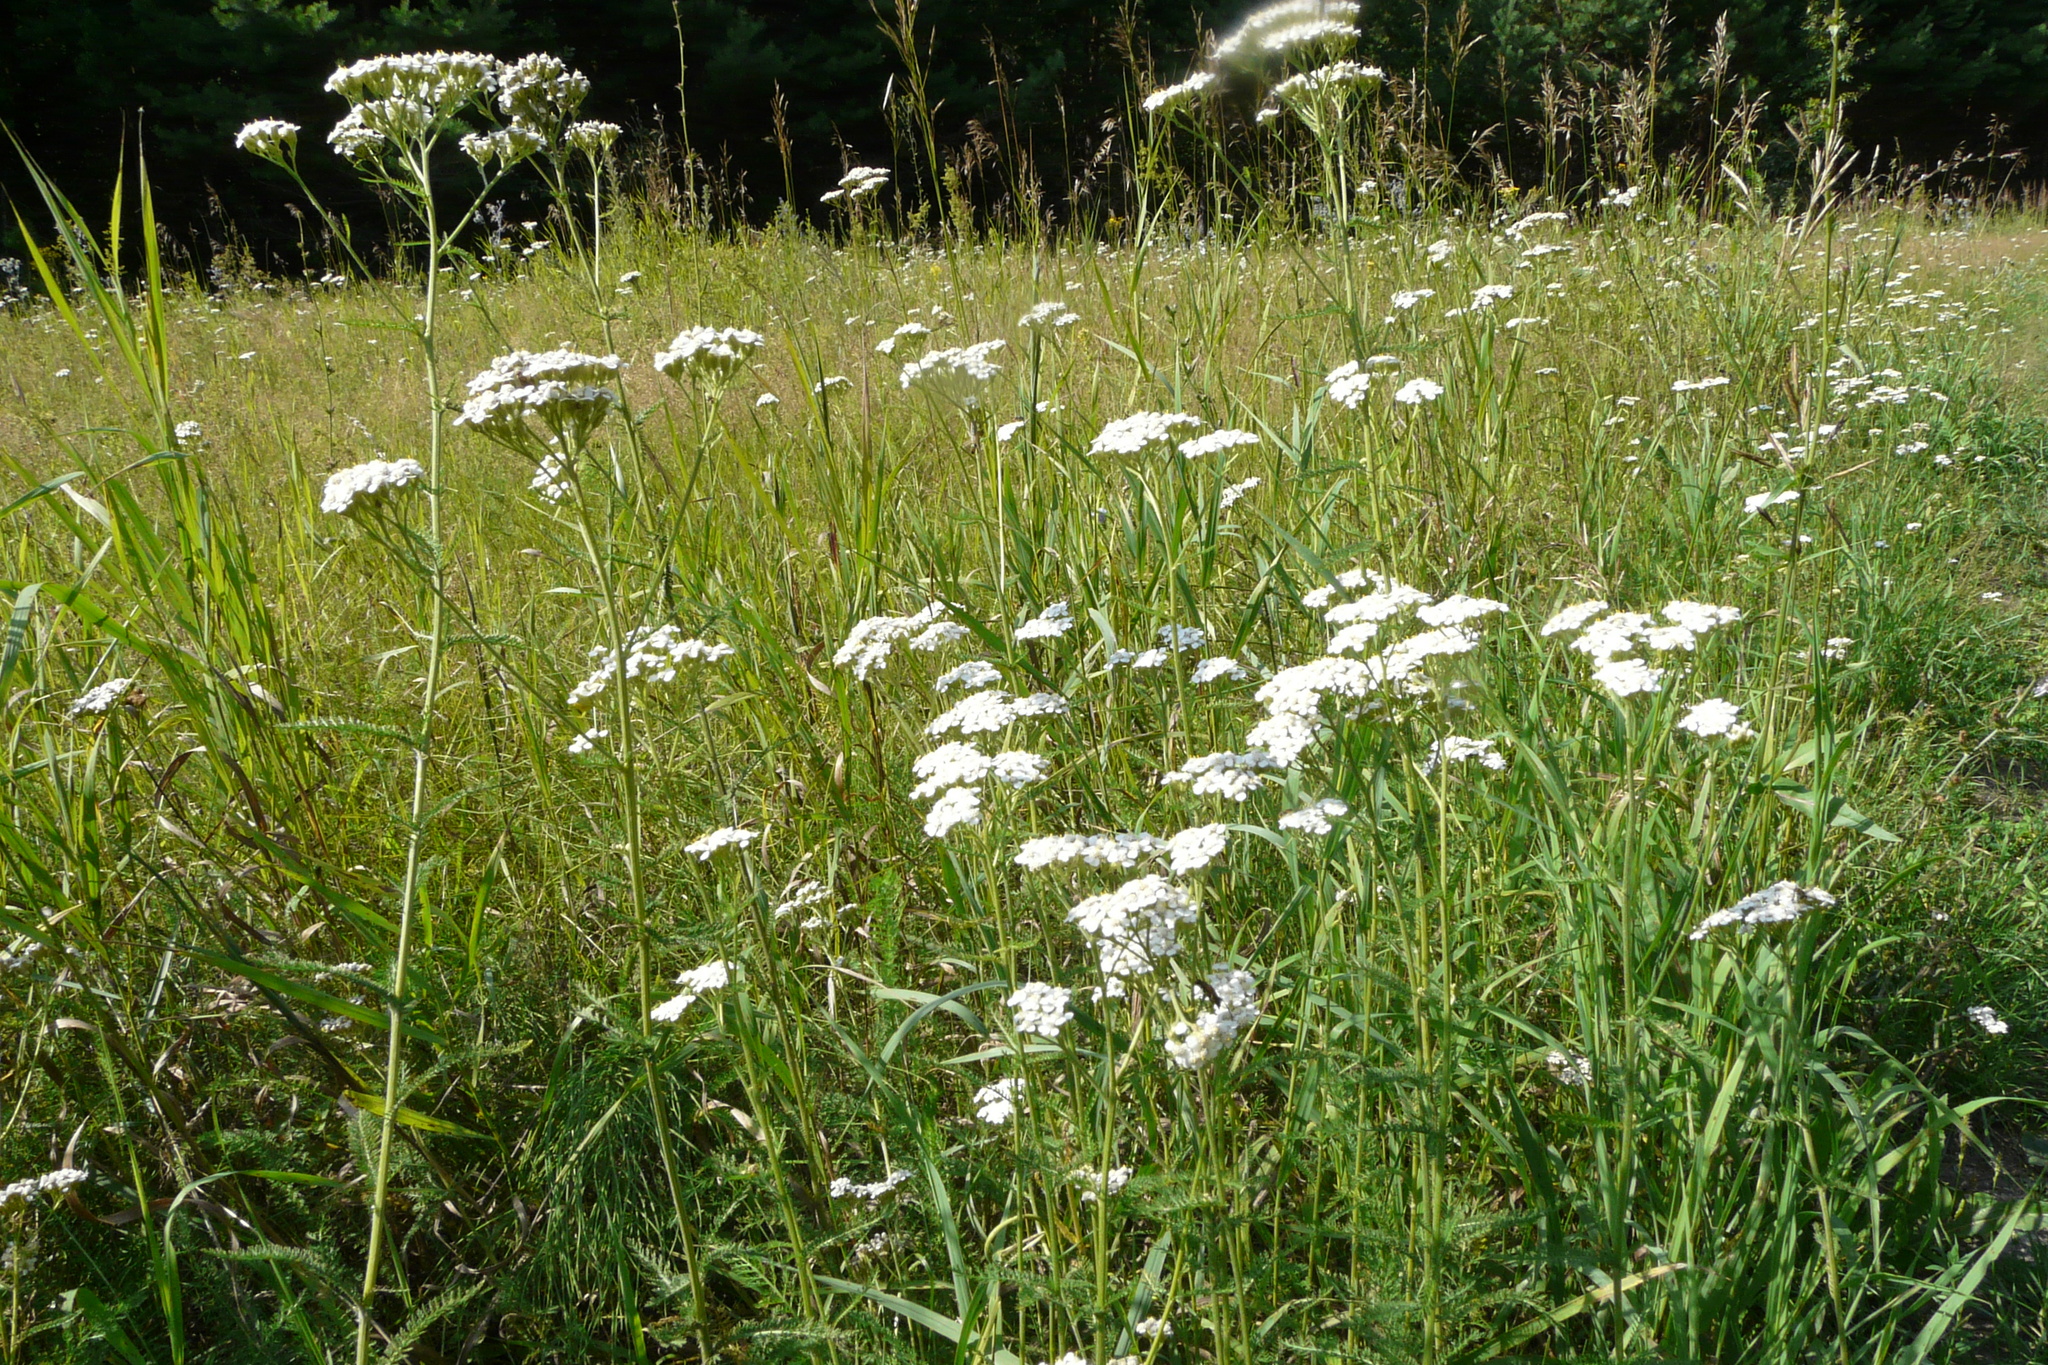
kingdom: Plantae
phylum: Tracheophyta
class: Magnoliopsida
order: Asterales
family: Asteraceae
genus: Achillea
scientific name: Achillea millefolium
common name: Yarrow
